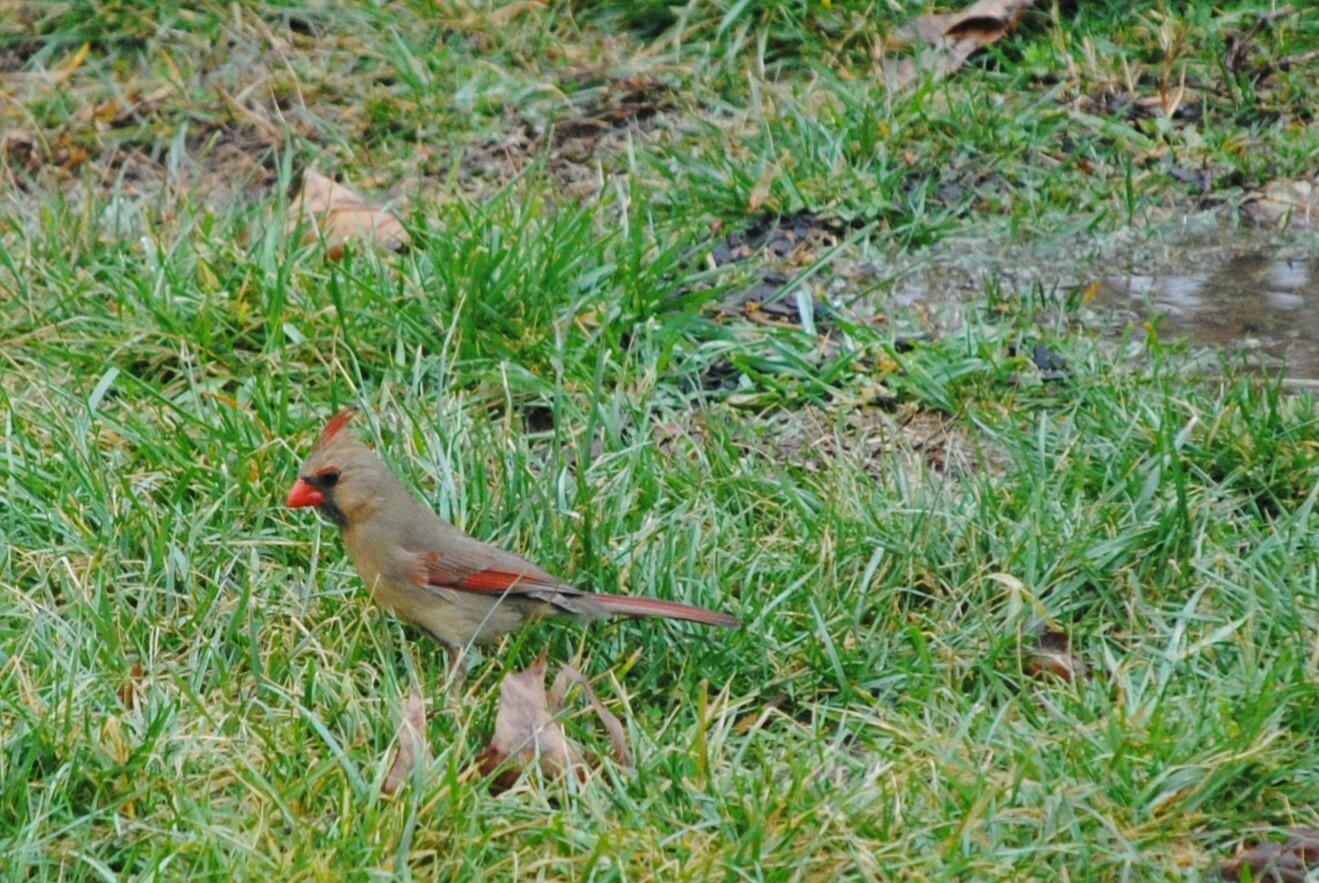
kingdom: Animalia
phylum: Chordata
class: Aves
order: Passeriformes
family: Cardinalidae
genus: Cardinalis
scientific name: Cardinalis cardinalis
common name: Northern cardinal
